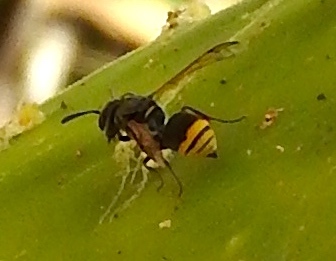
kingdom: Animalia
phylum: Arthropoda
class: Insecta
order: Hymenoptera
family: Vespidae
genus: Brachygastra
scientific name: Brachygastra azteca
